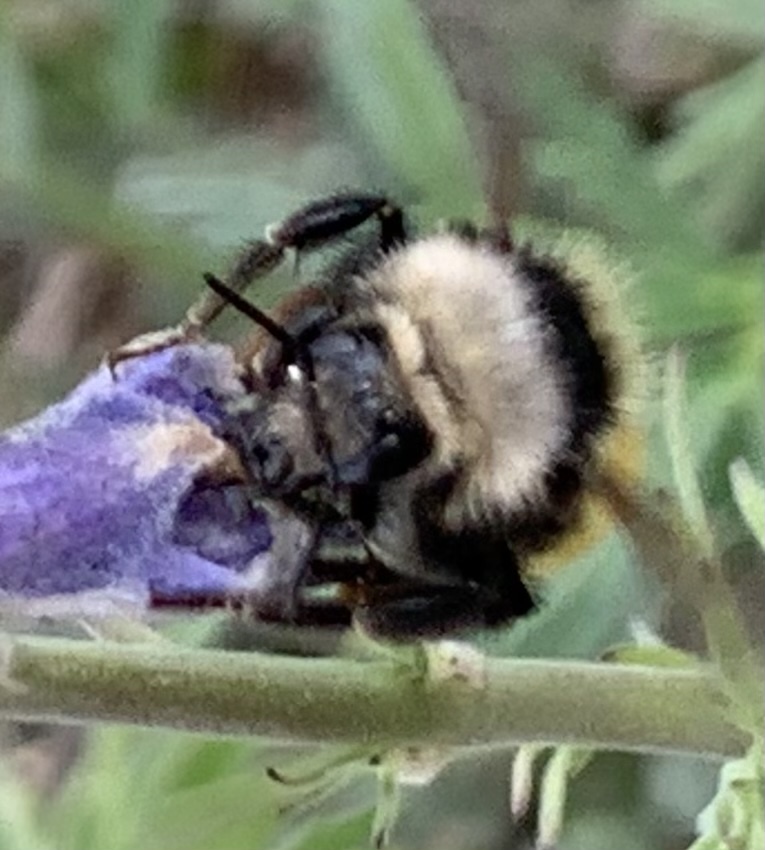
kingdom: Animalia
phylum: Arthropoda
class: Insecta
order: Hymenoptera
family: Apidae
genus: Bombus
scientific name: Bombus appositus
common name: White-shouldered bumble bee
